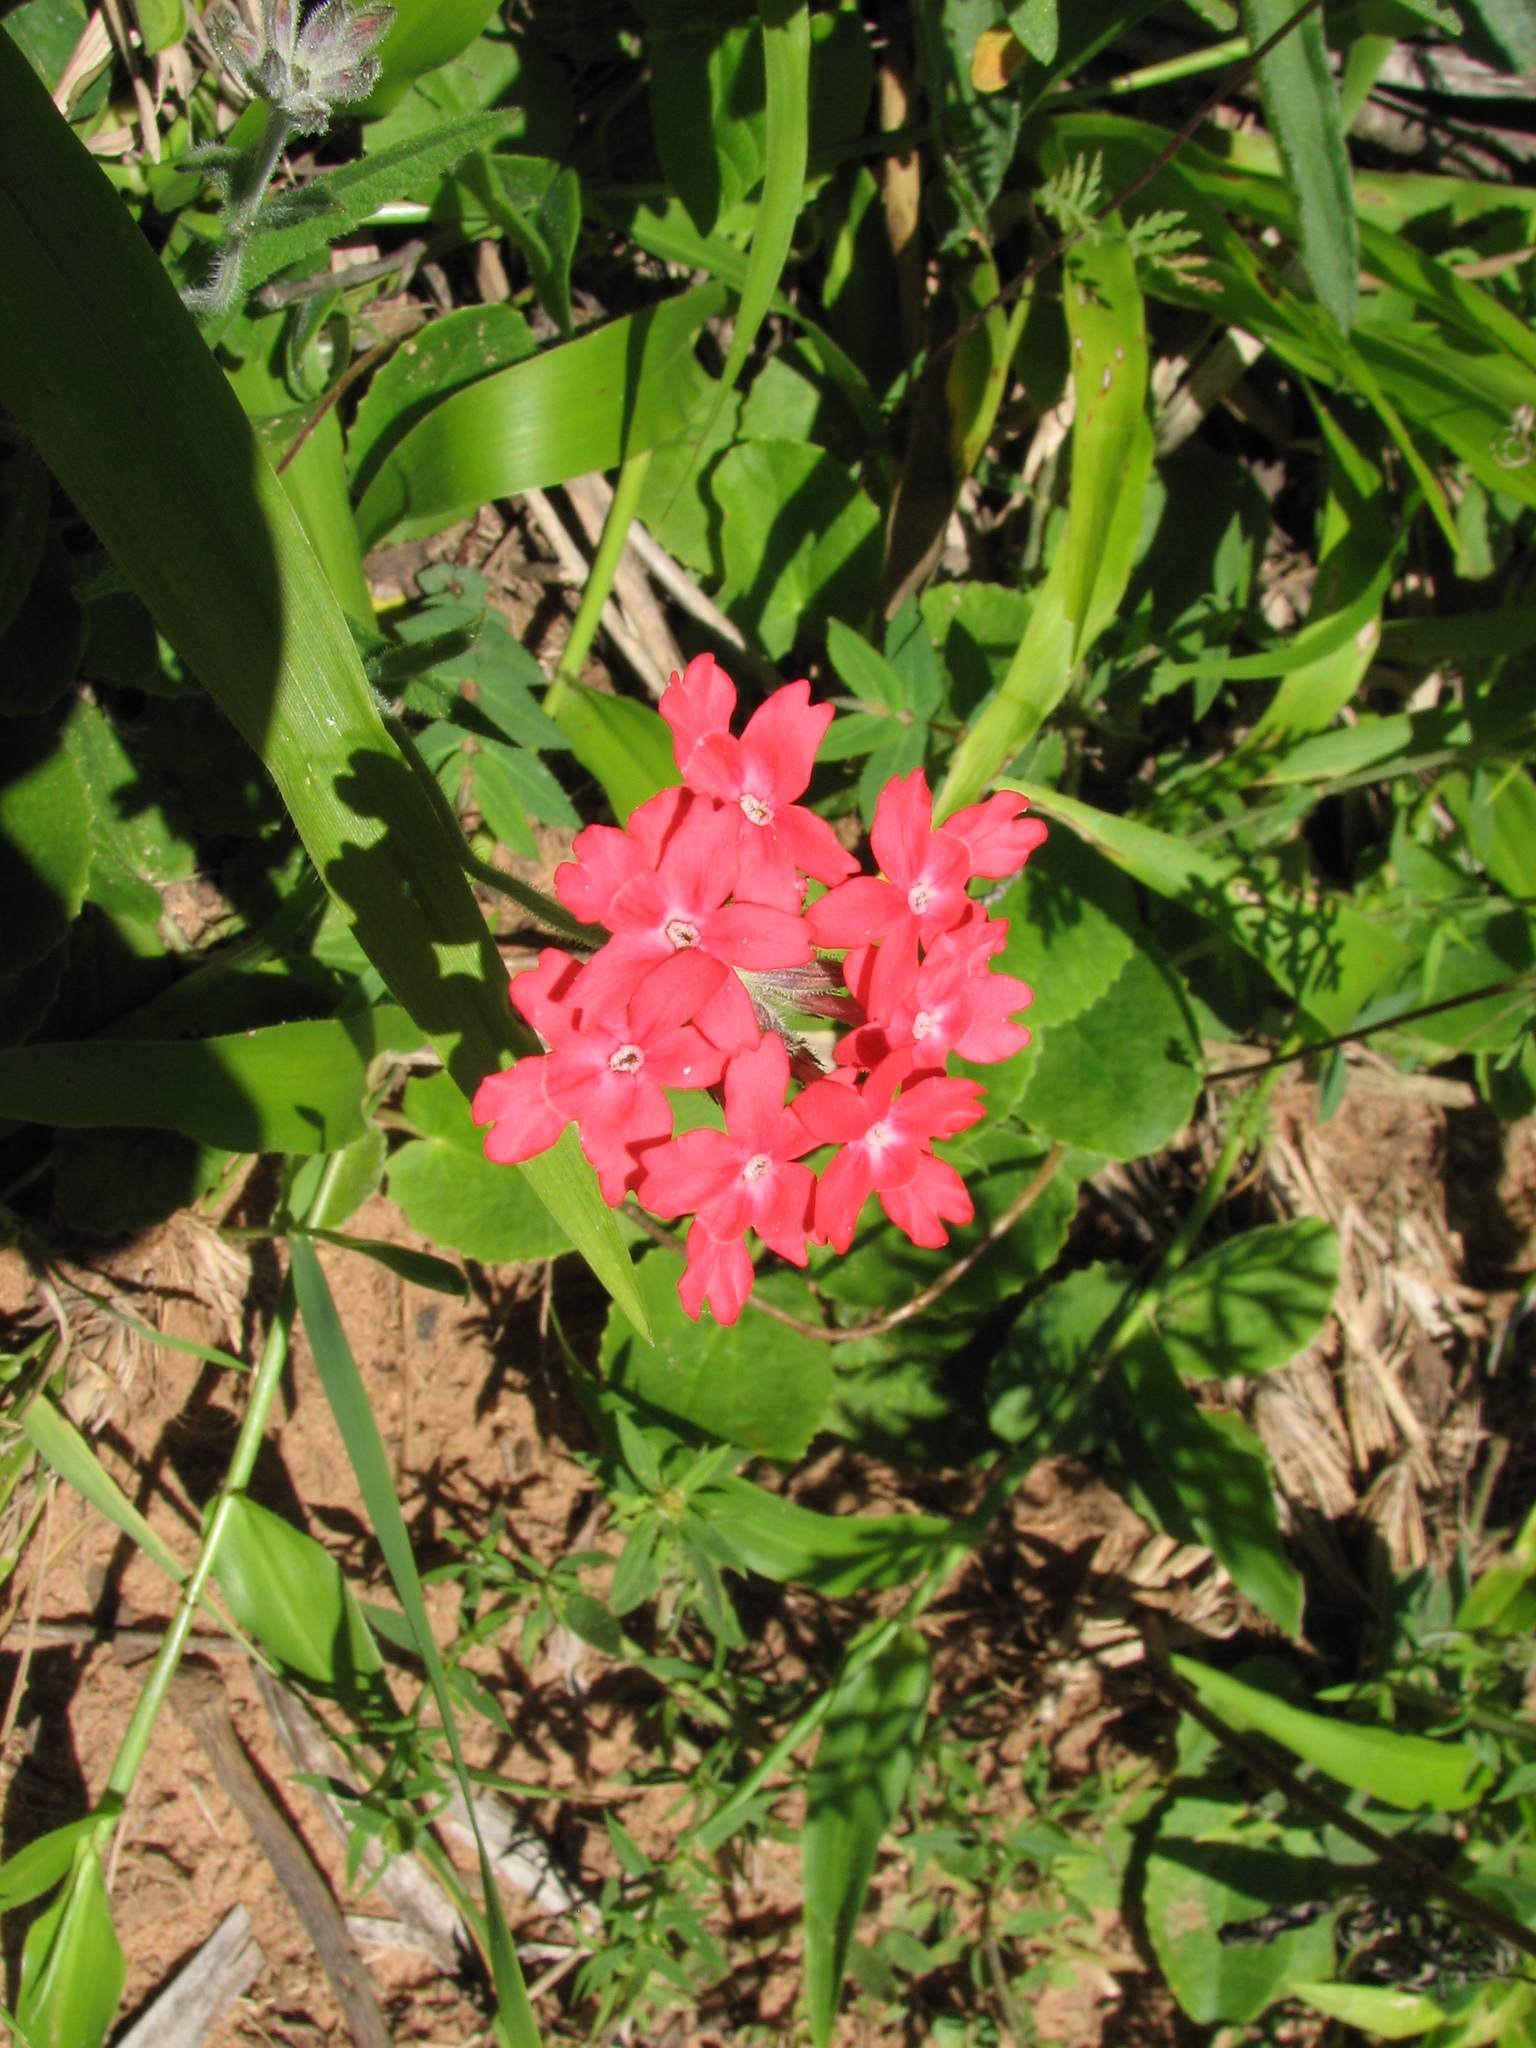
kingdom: Plantae
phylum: Tracheophyta
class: Magnoliopsida
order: Lamiales
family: Verbenaceae
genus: Verbena
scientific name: Verbena peruviana
